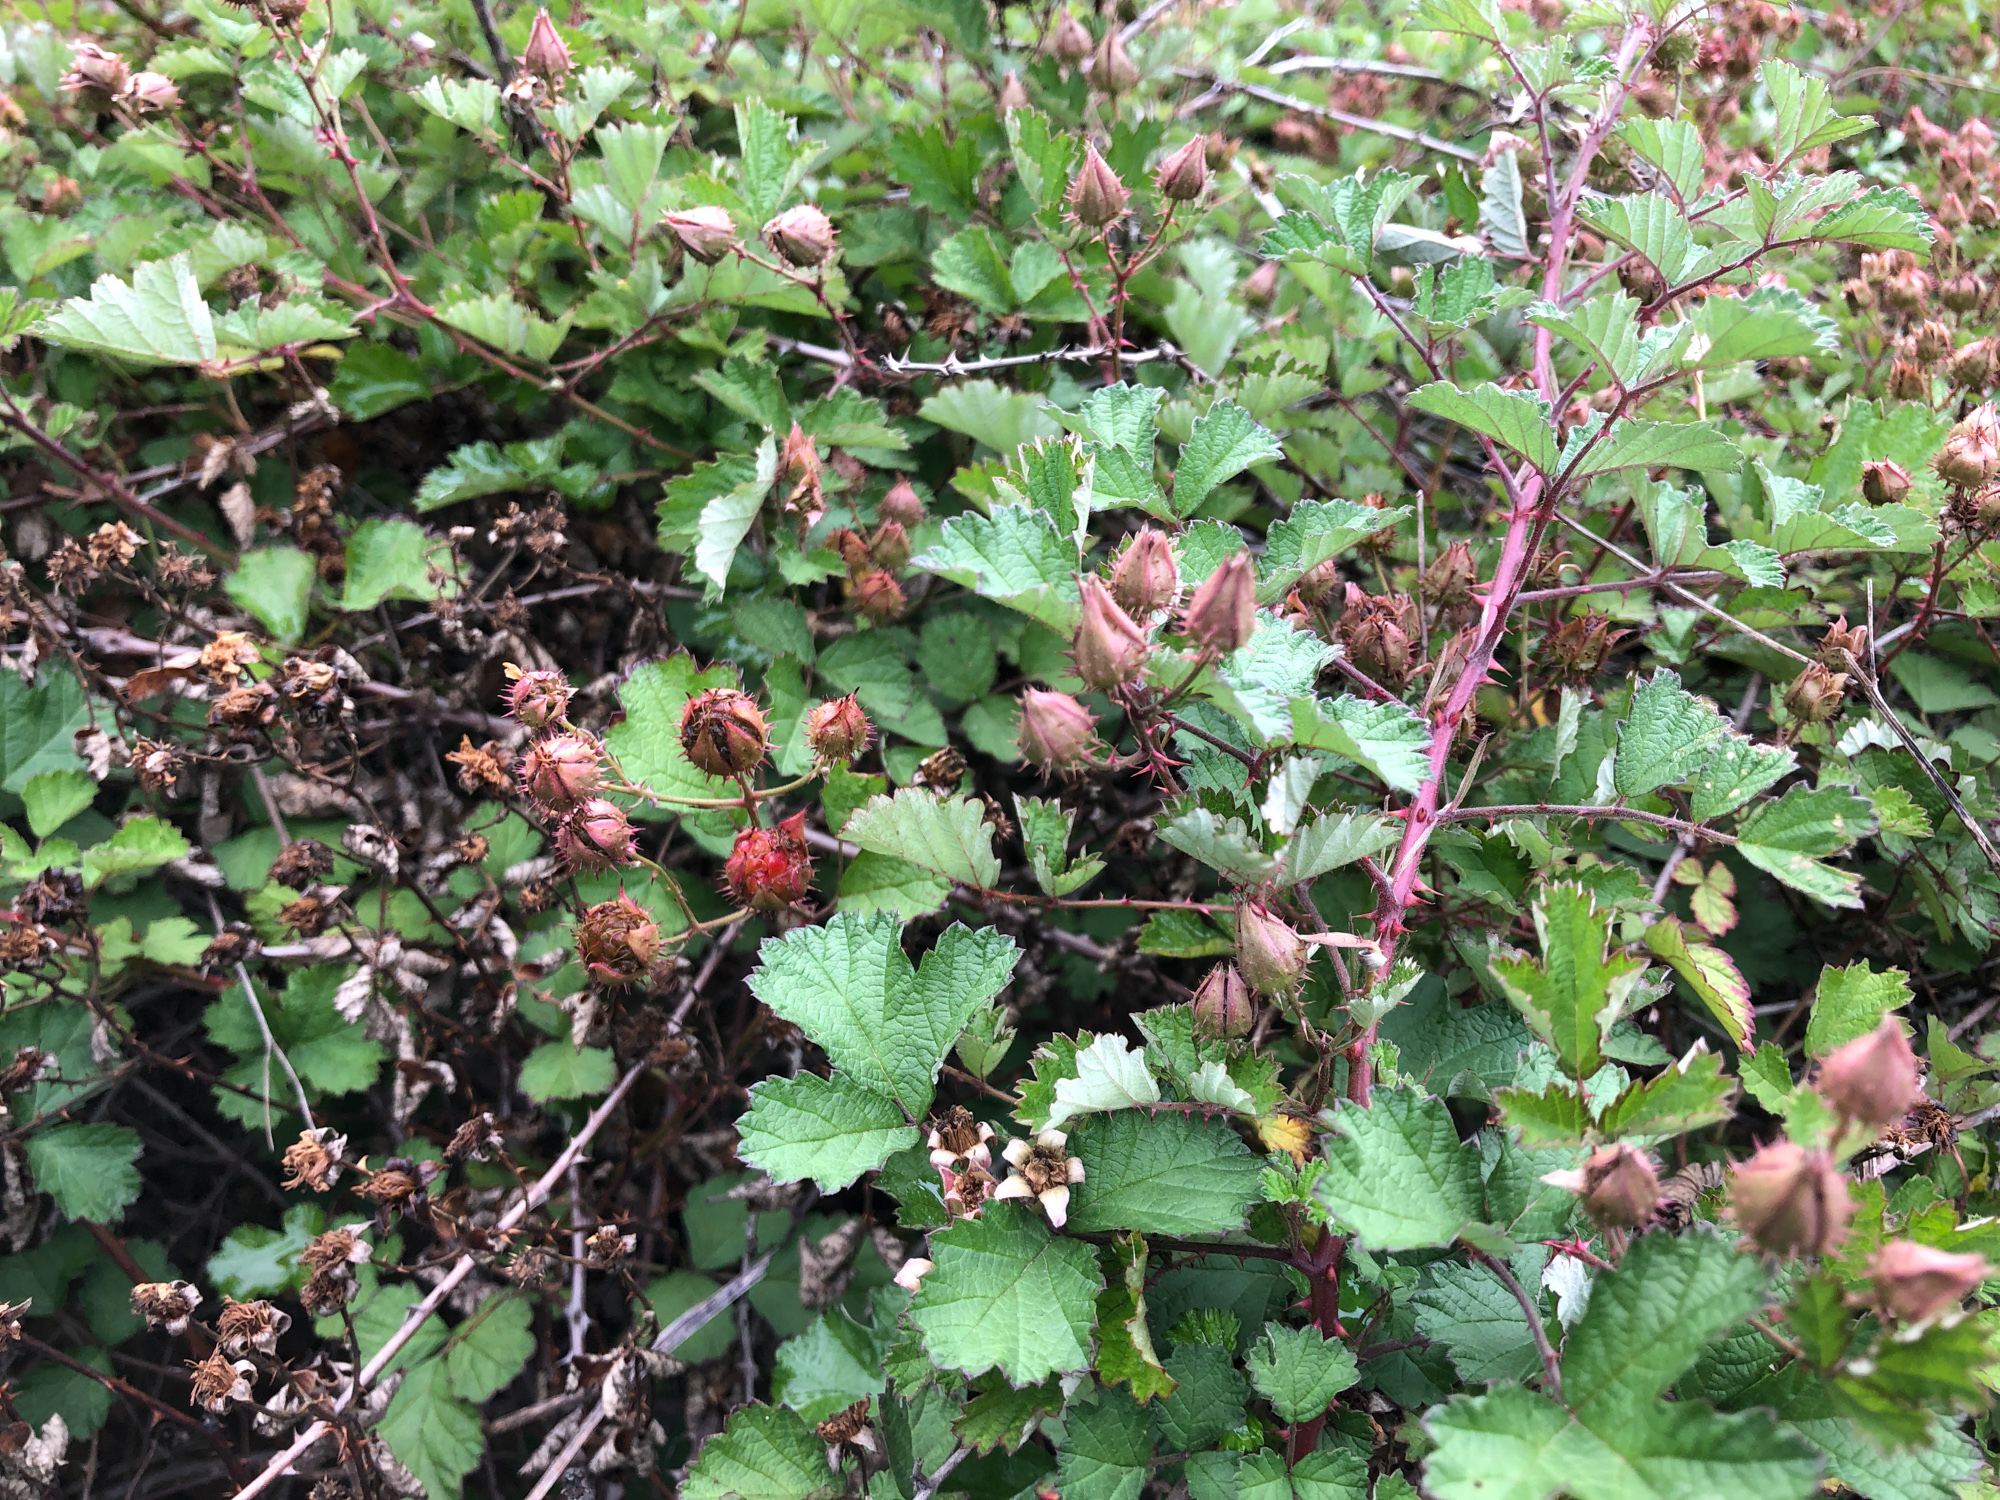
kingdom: Plantae
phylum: Tracheophyta
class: Magnoliopsida
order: Rosales
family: Rosaceae
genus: Rubus
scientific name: Rubus parvifolius
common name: Threeleaf blackberry
